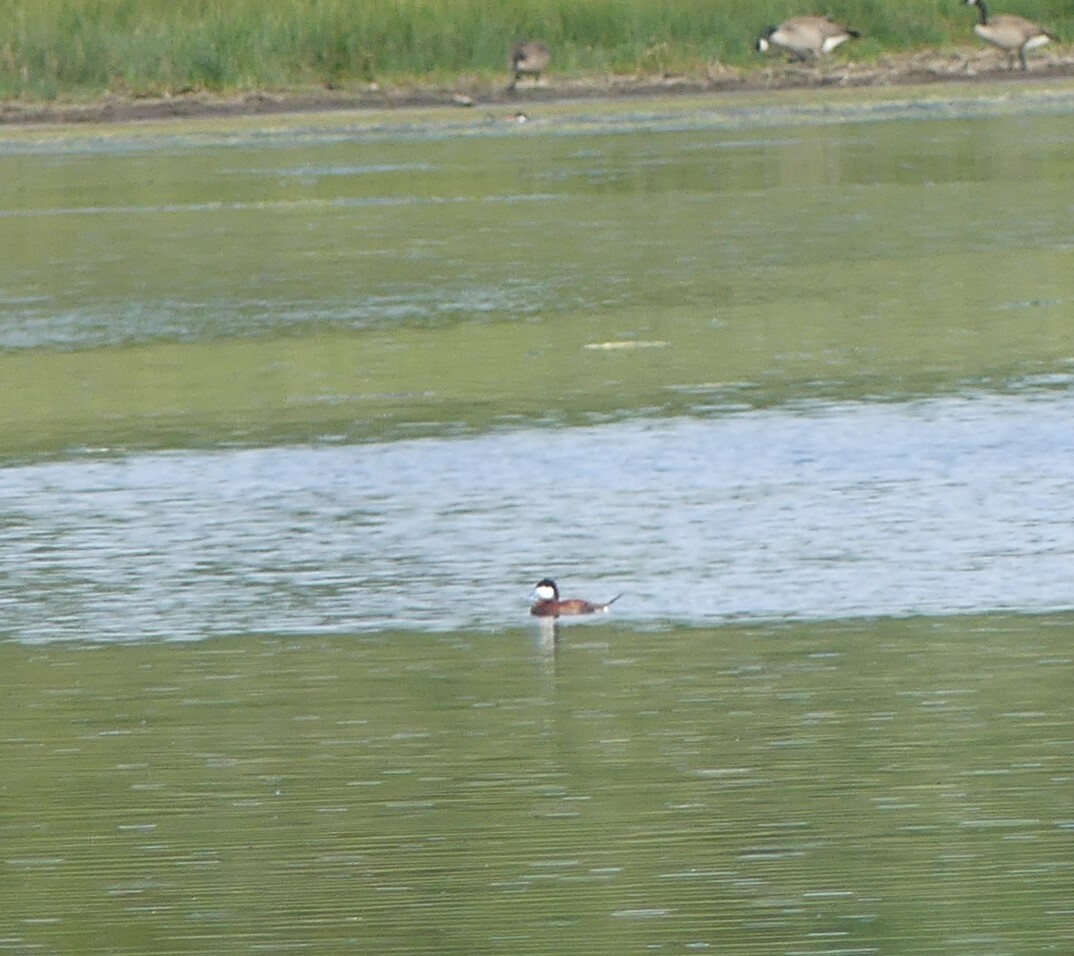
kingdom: Animalia
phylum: Chordata
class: Aves
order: Anseriformes
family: Anatidae
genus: Oxyura
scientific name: Oxyura jamaicensis
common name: Ruddy duck
